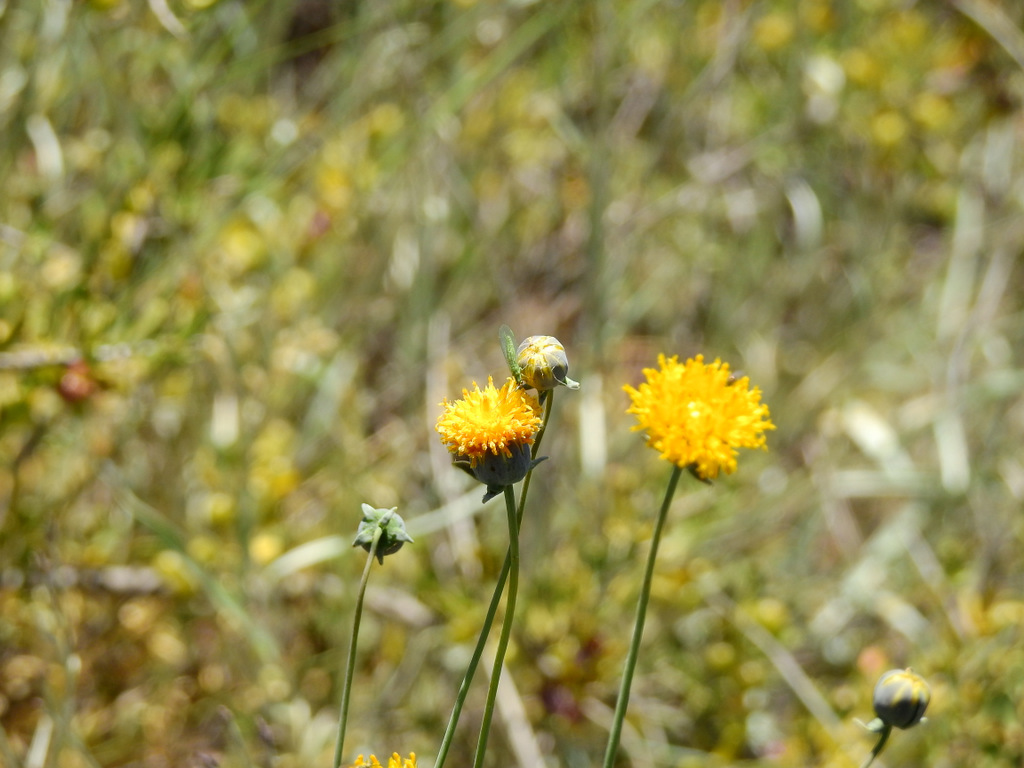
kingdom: Plantae
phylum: Tracheophyta
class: Magnoliopsida
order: Asterales
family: Asteraceae
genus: Thelesperma
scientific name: Thelesperma megapotamicum
